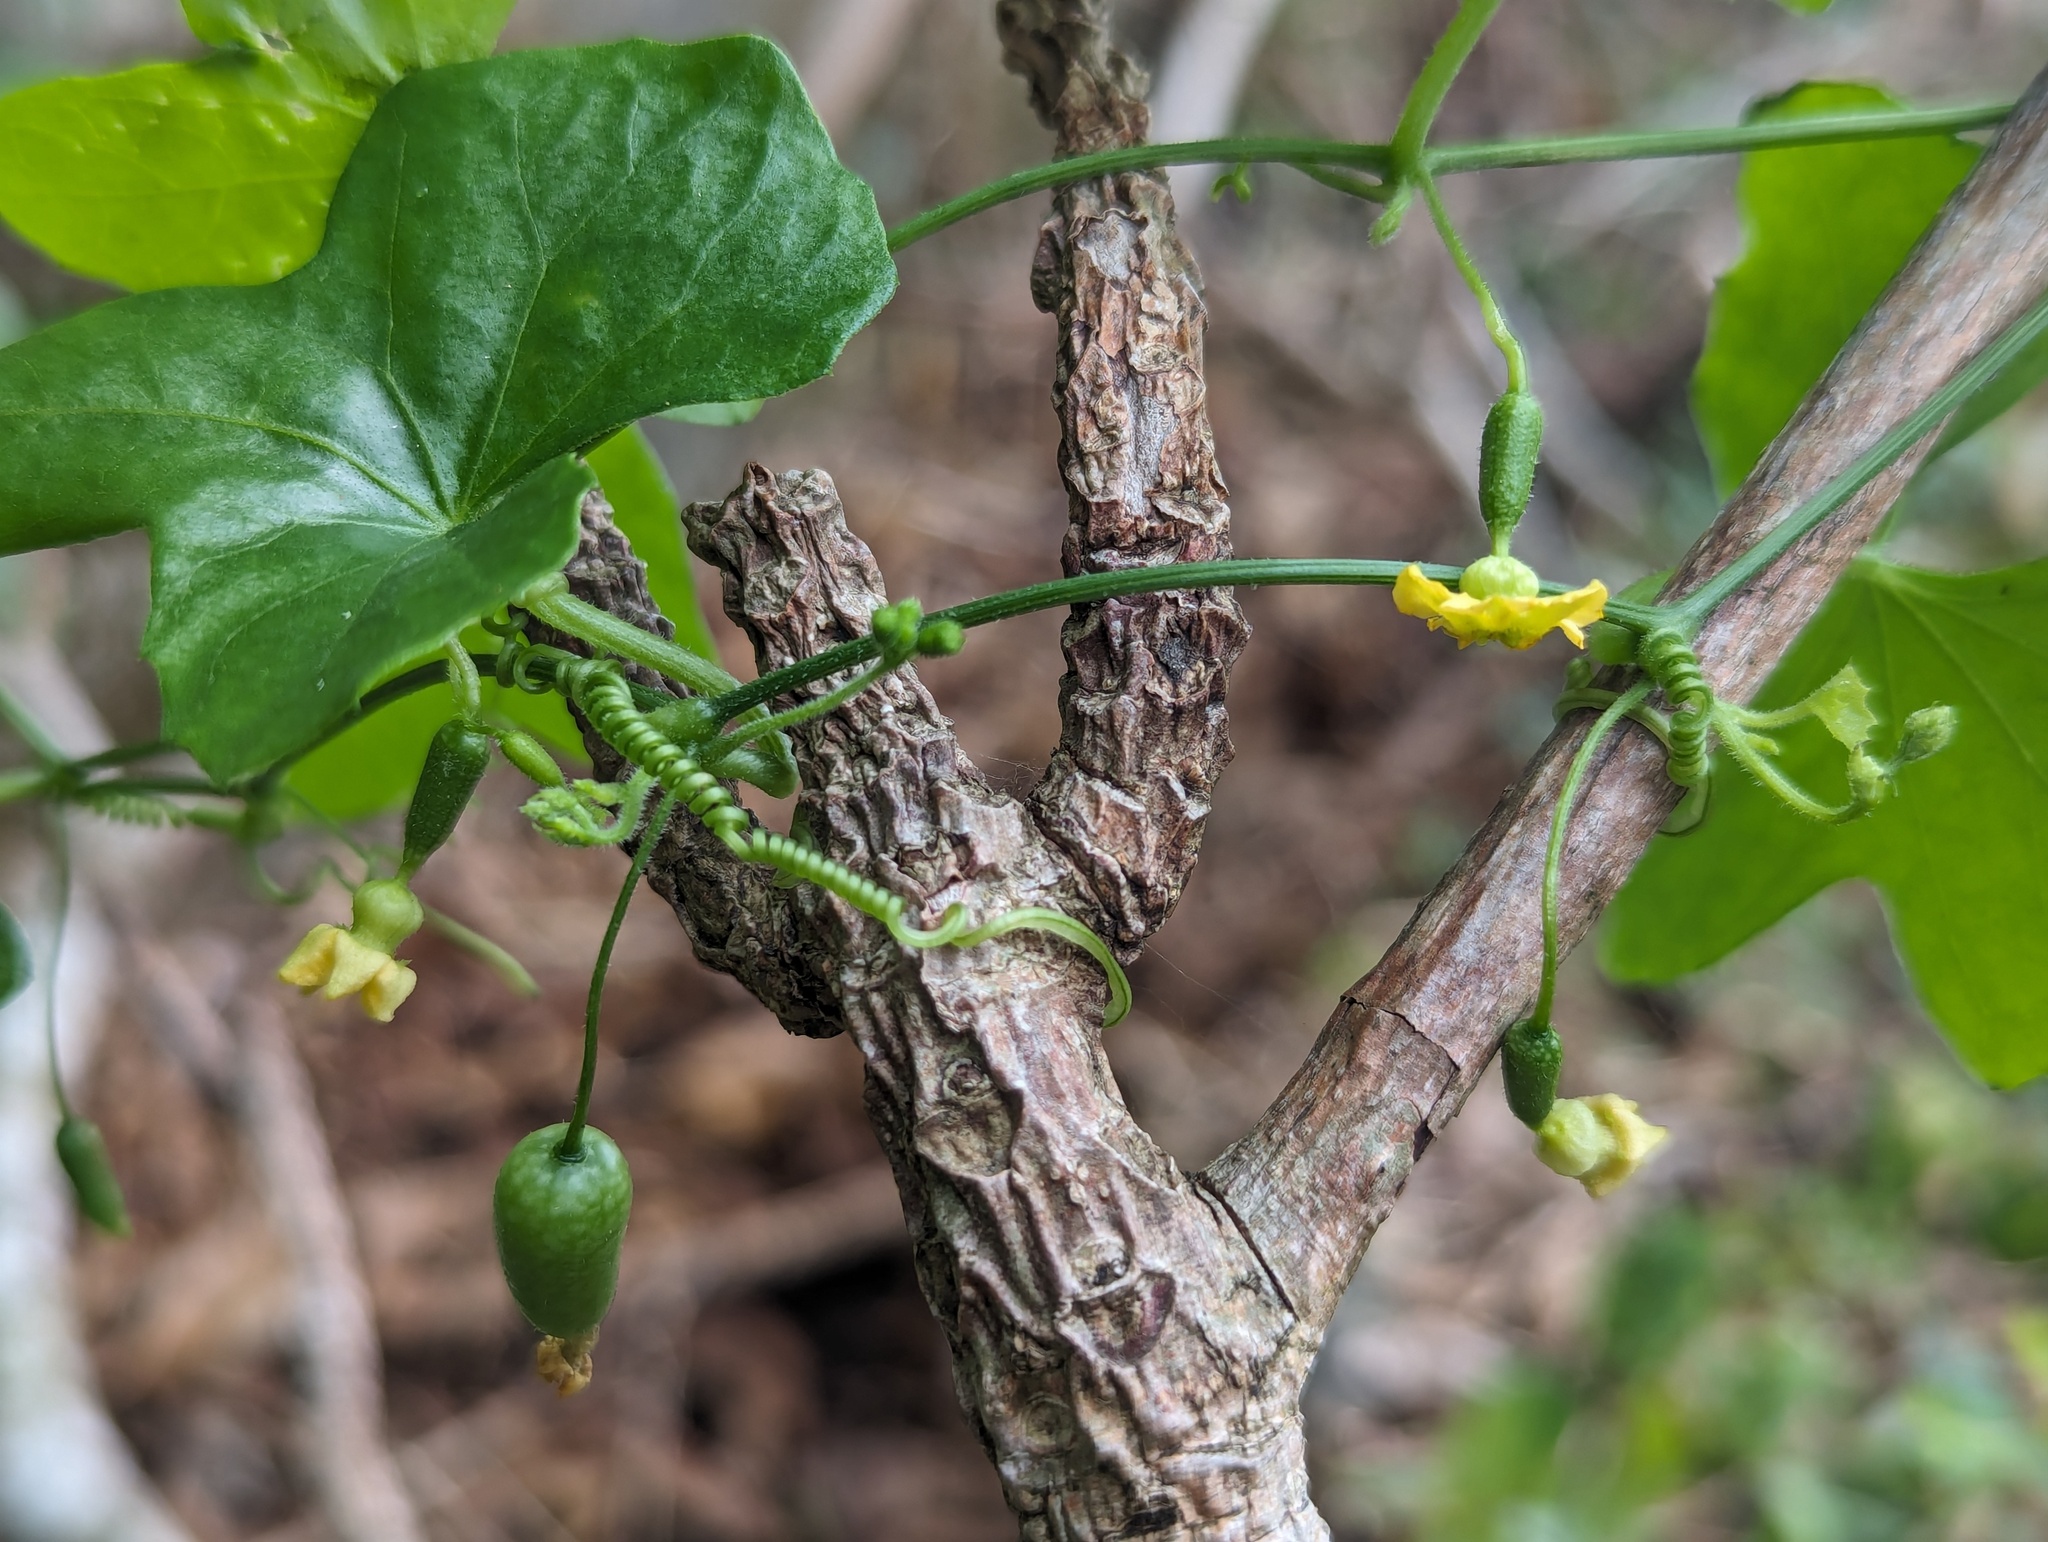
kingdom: Plantae
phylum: Tracheophyta
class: Magnoliopsida
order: Cucurbitales
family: Cucurbitaceae
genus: Melothria
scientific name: Melothria pendula
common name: Creeping-cucumber
